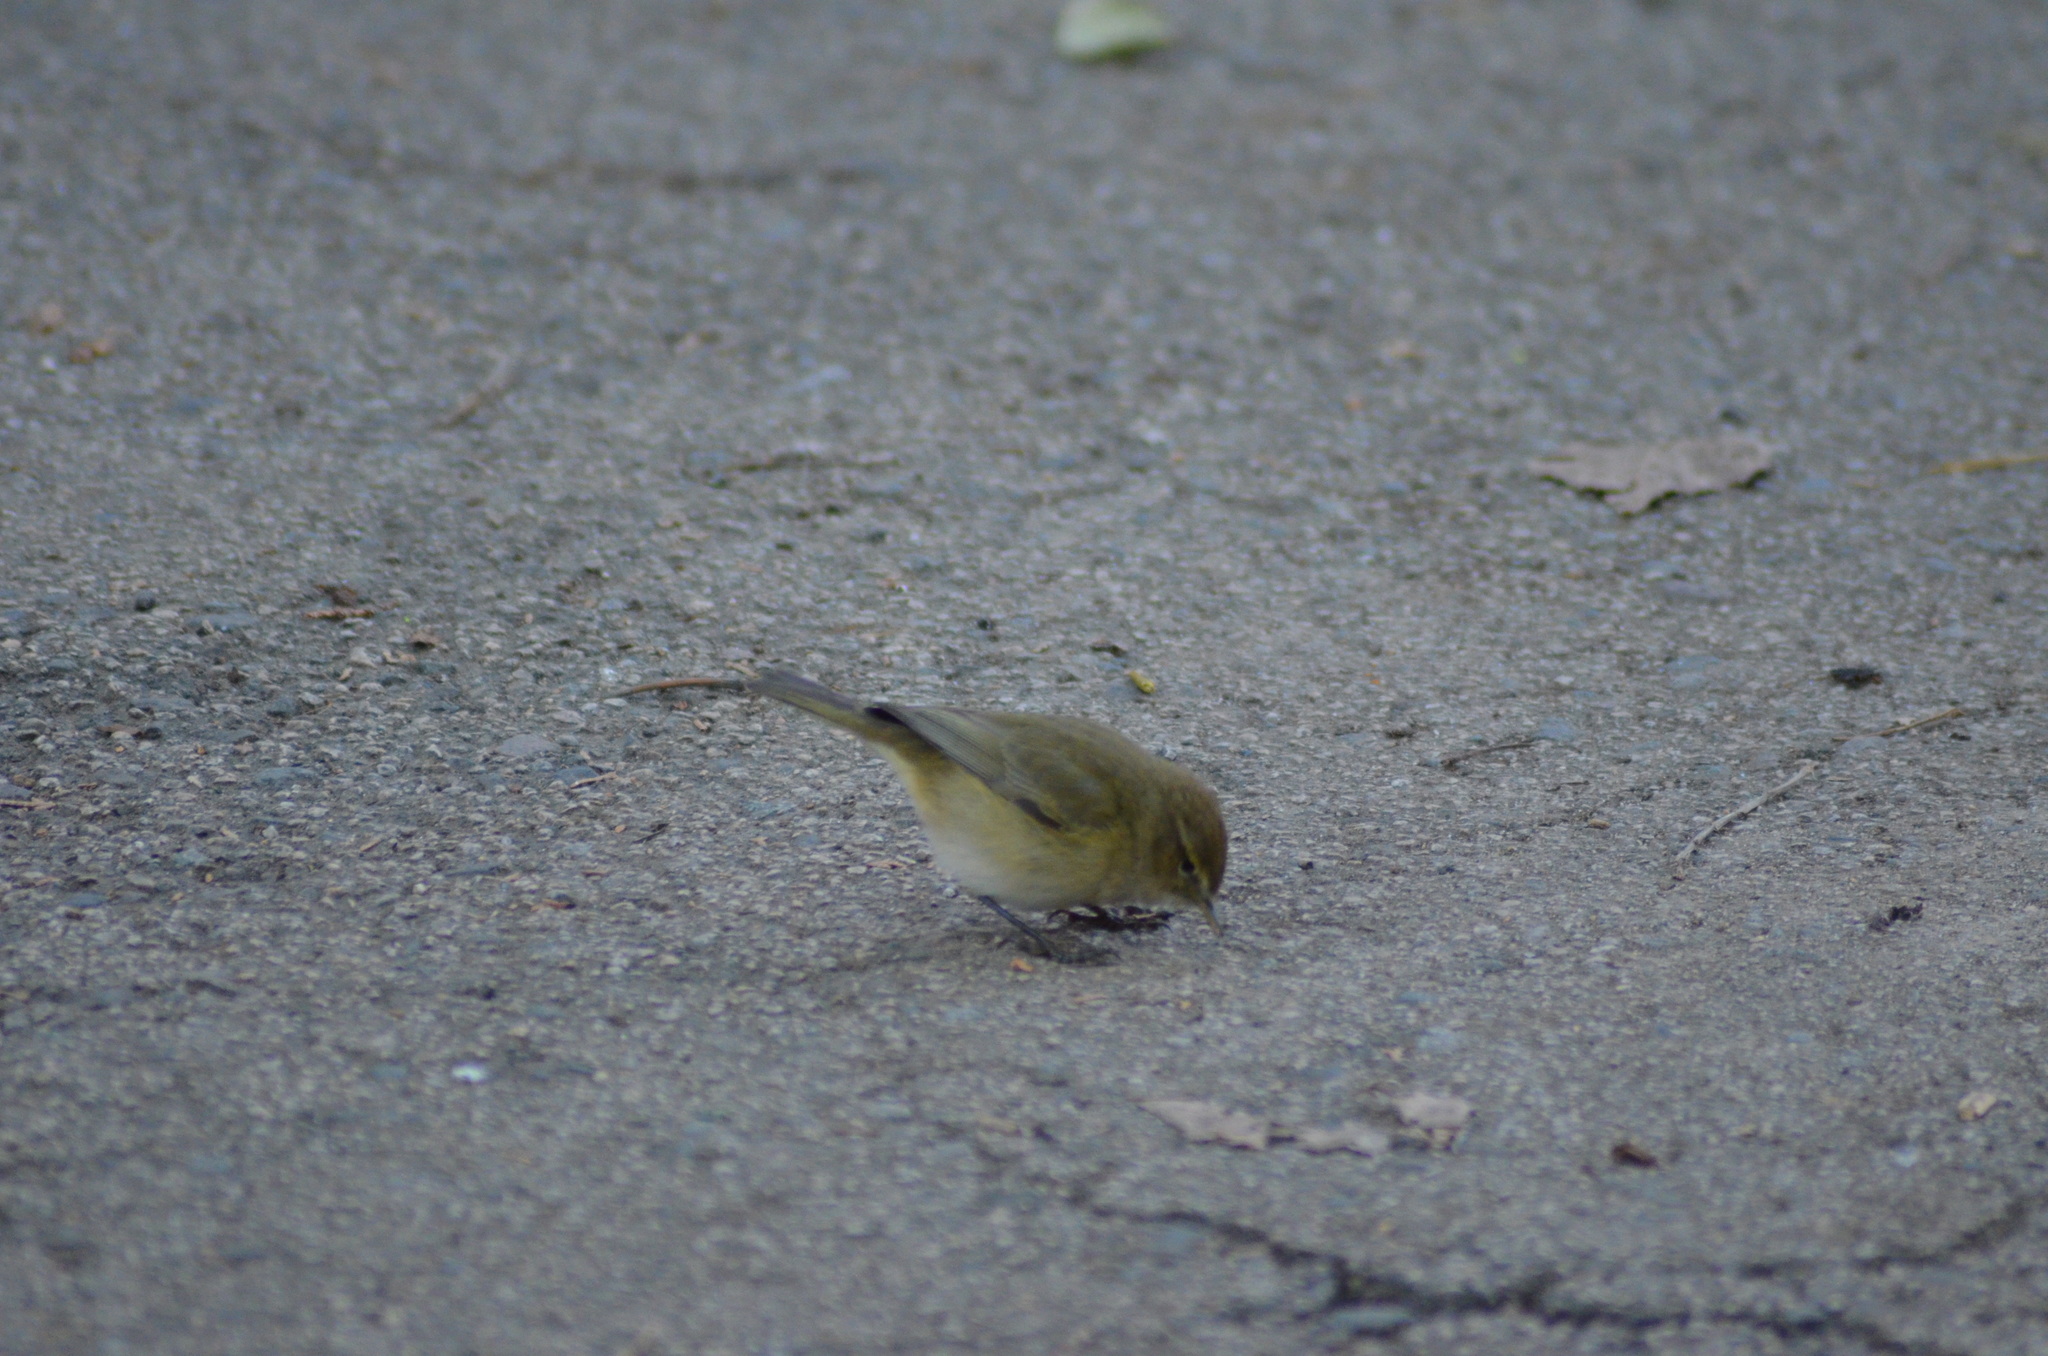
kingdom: Animalia
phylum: Chordata
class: Aves
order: Passeriformes
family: Phylloscopidae
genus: Phylloscopus
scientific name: Phylloscopus collybita
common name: Common chiffchaff
